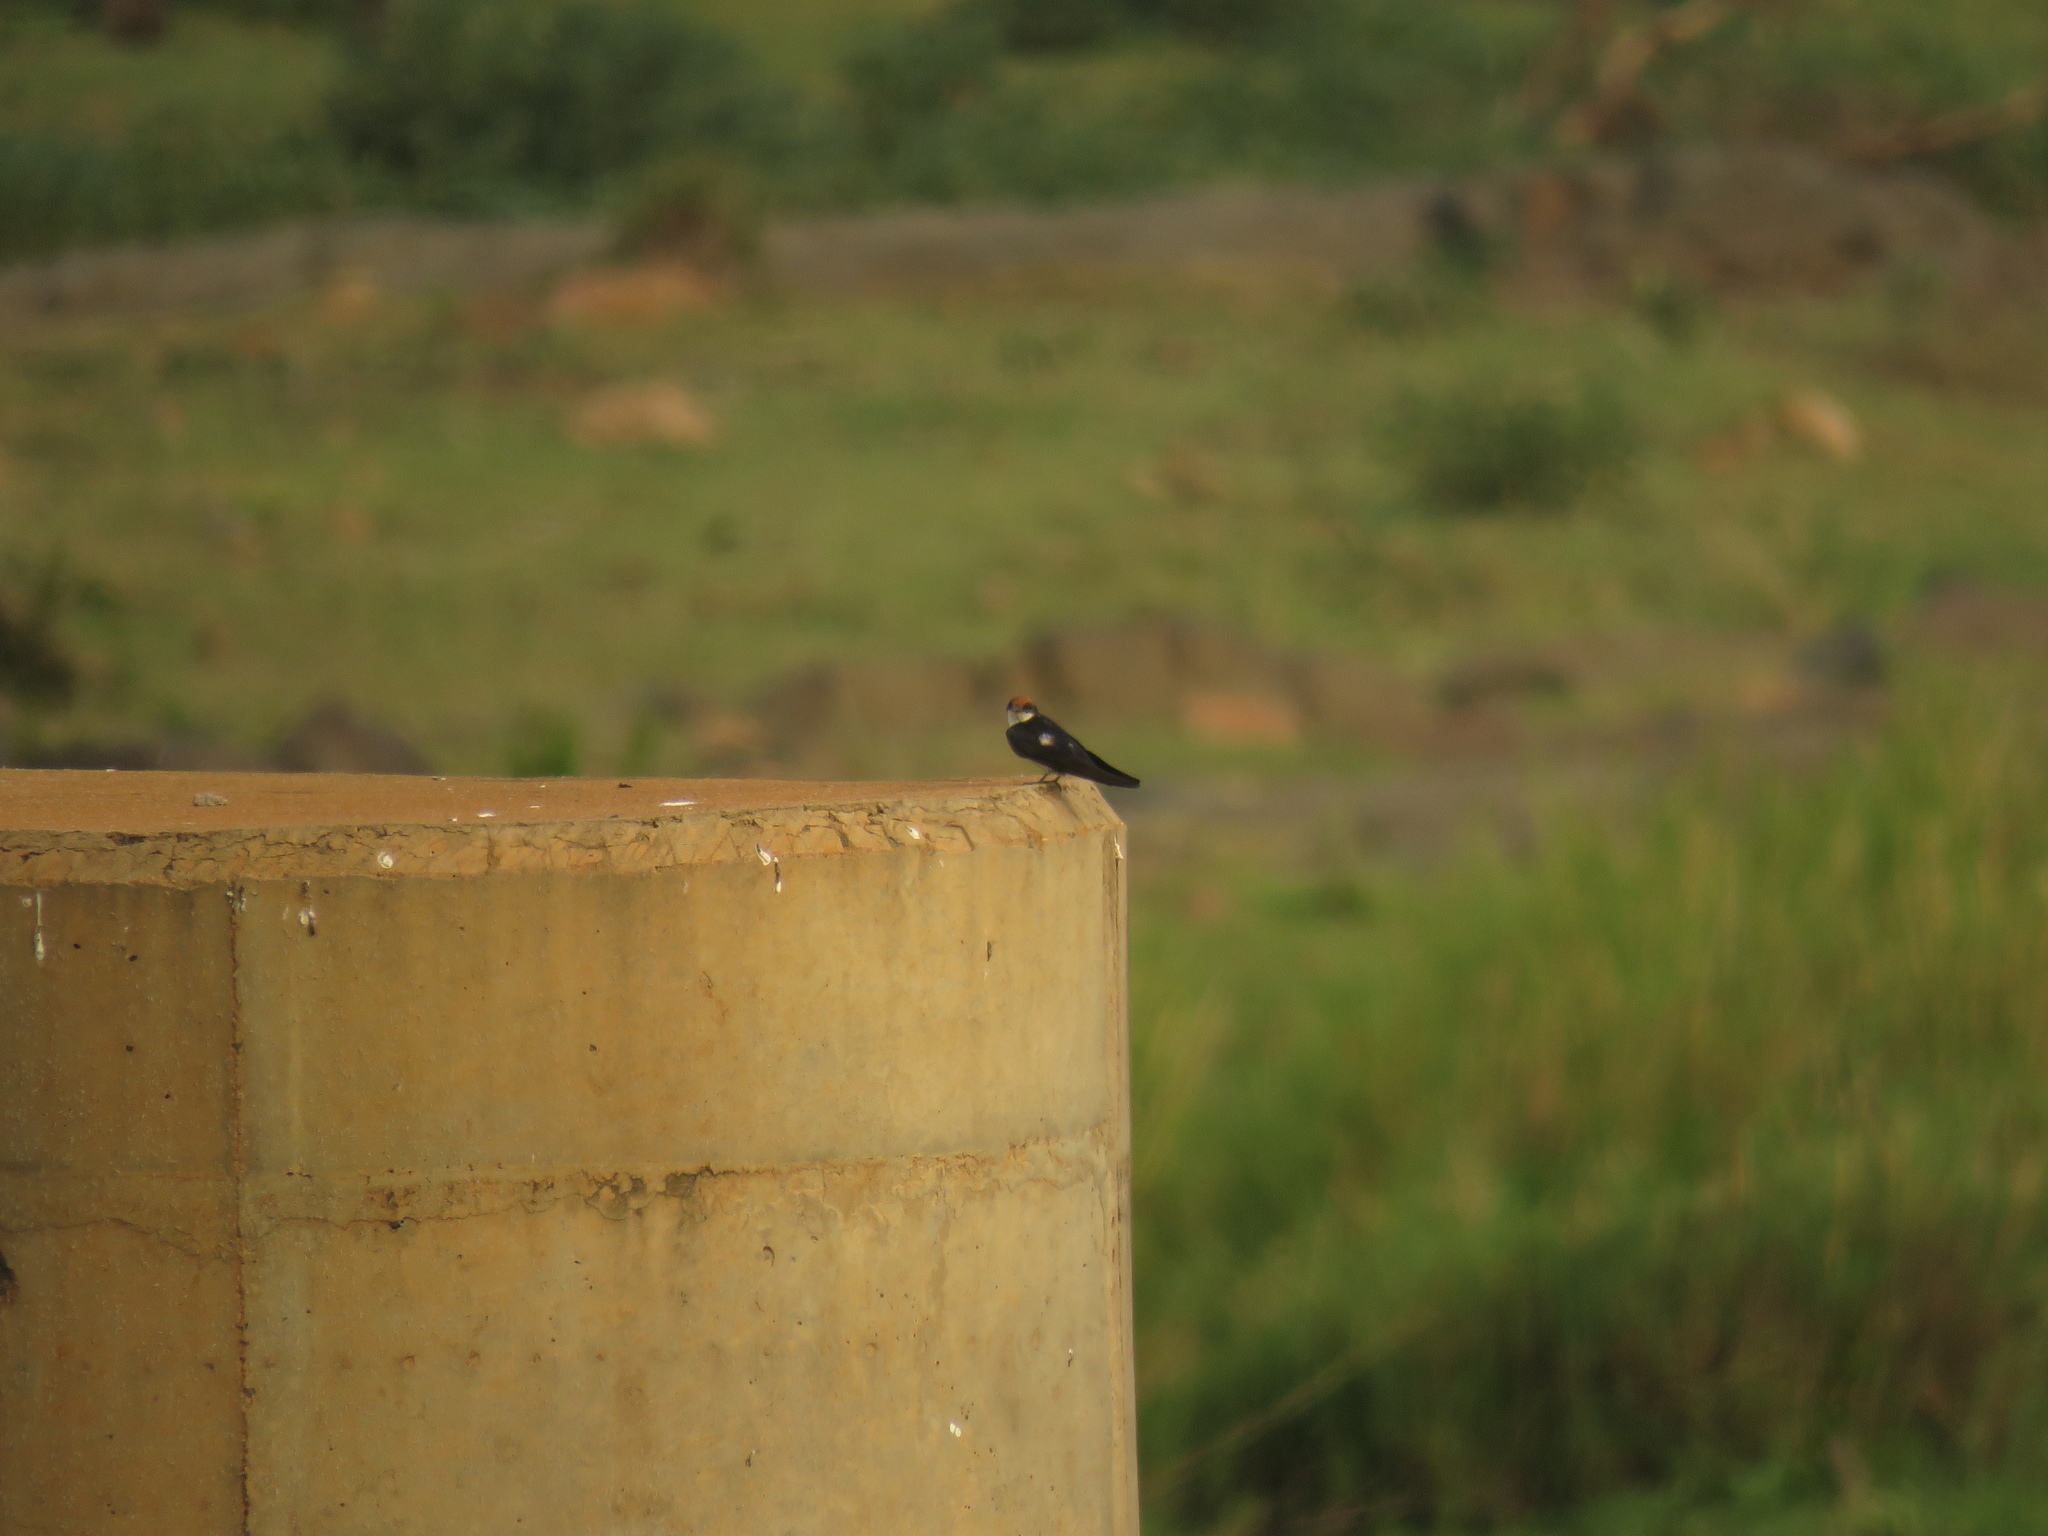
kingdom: Animalia
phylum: Chordata
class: Aves
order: Passeriformes
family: Hirundinidae
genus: Hirundo
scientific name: Hirundo smithii
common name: Wire-tailed swallow
